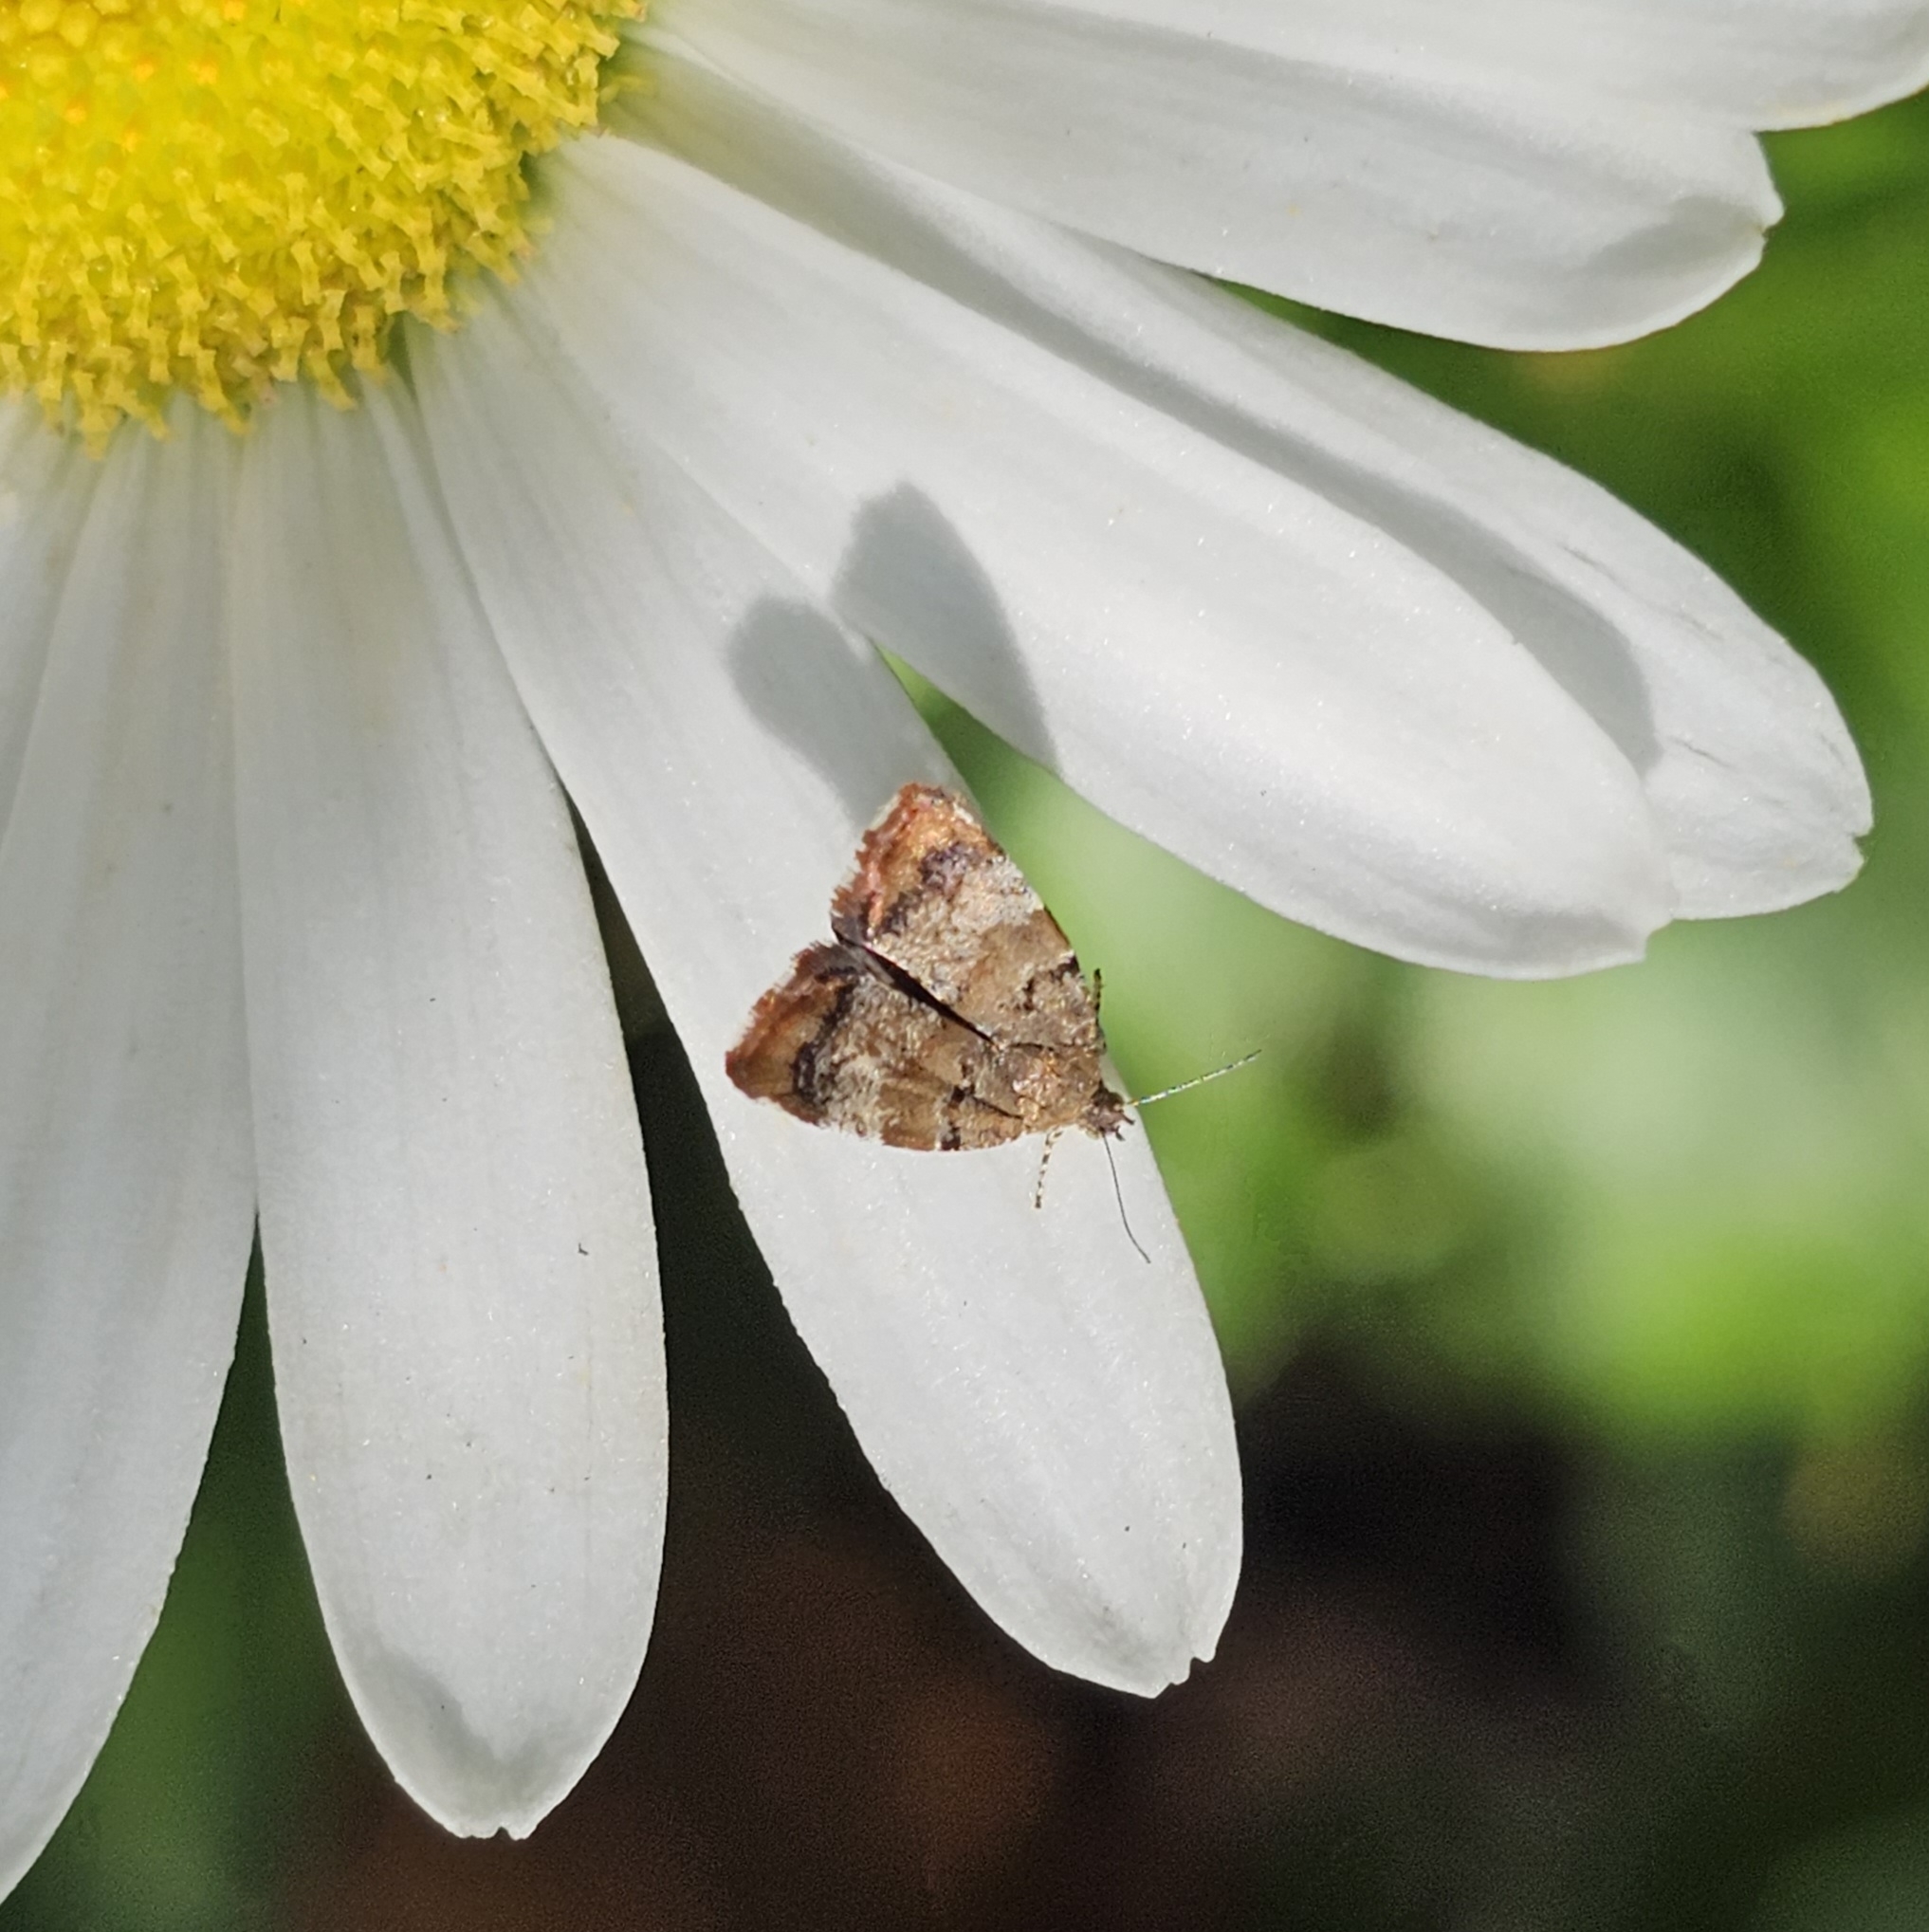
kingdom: Animalia
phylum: Arthropoda
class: Insecta
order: Lepidoptera
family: Choreutidae
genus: Choreutis
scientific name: Choreutis pariana
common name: Apple leaf skeletoniser
